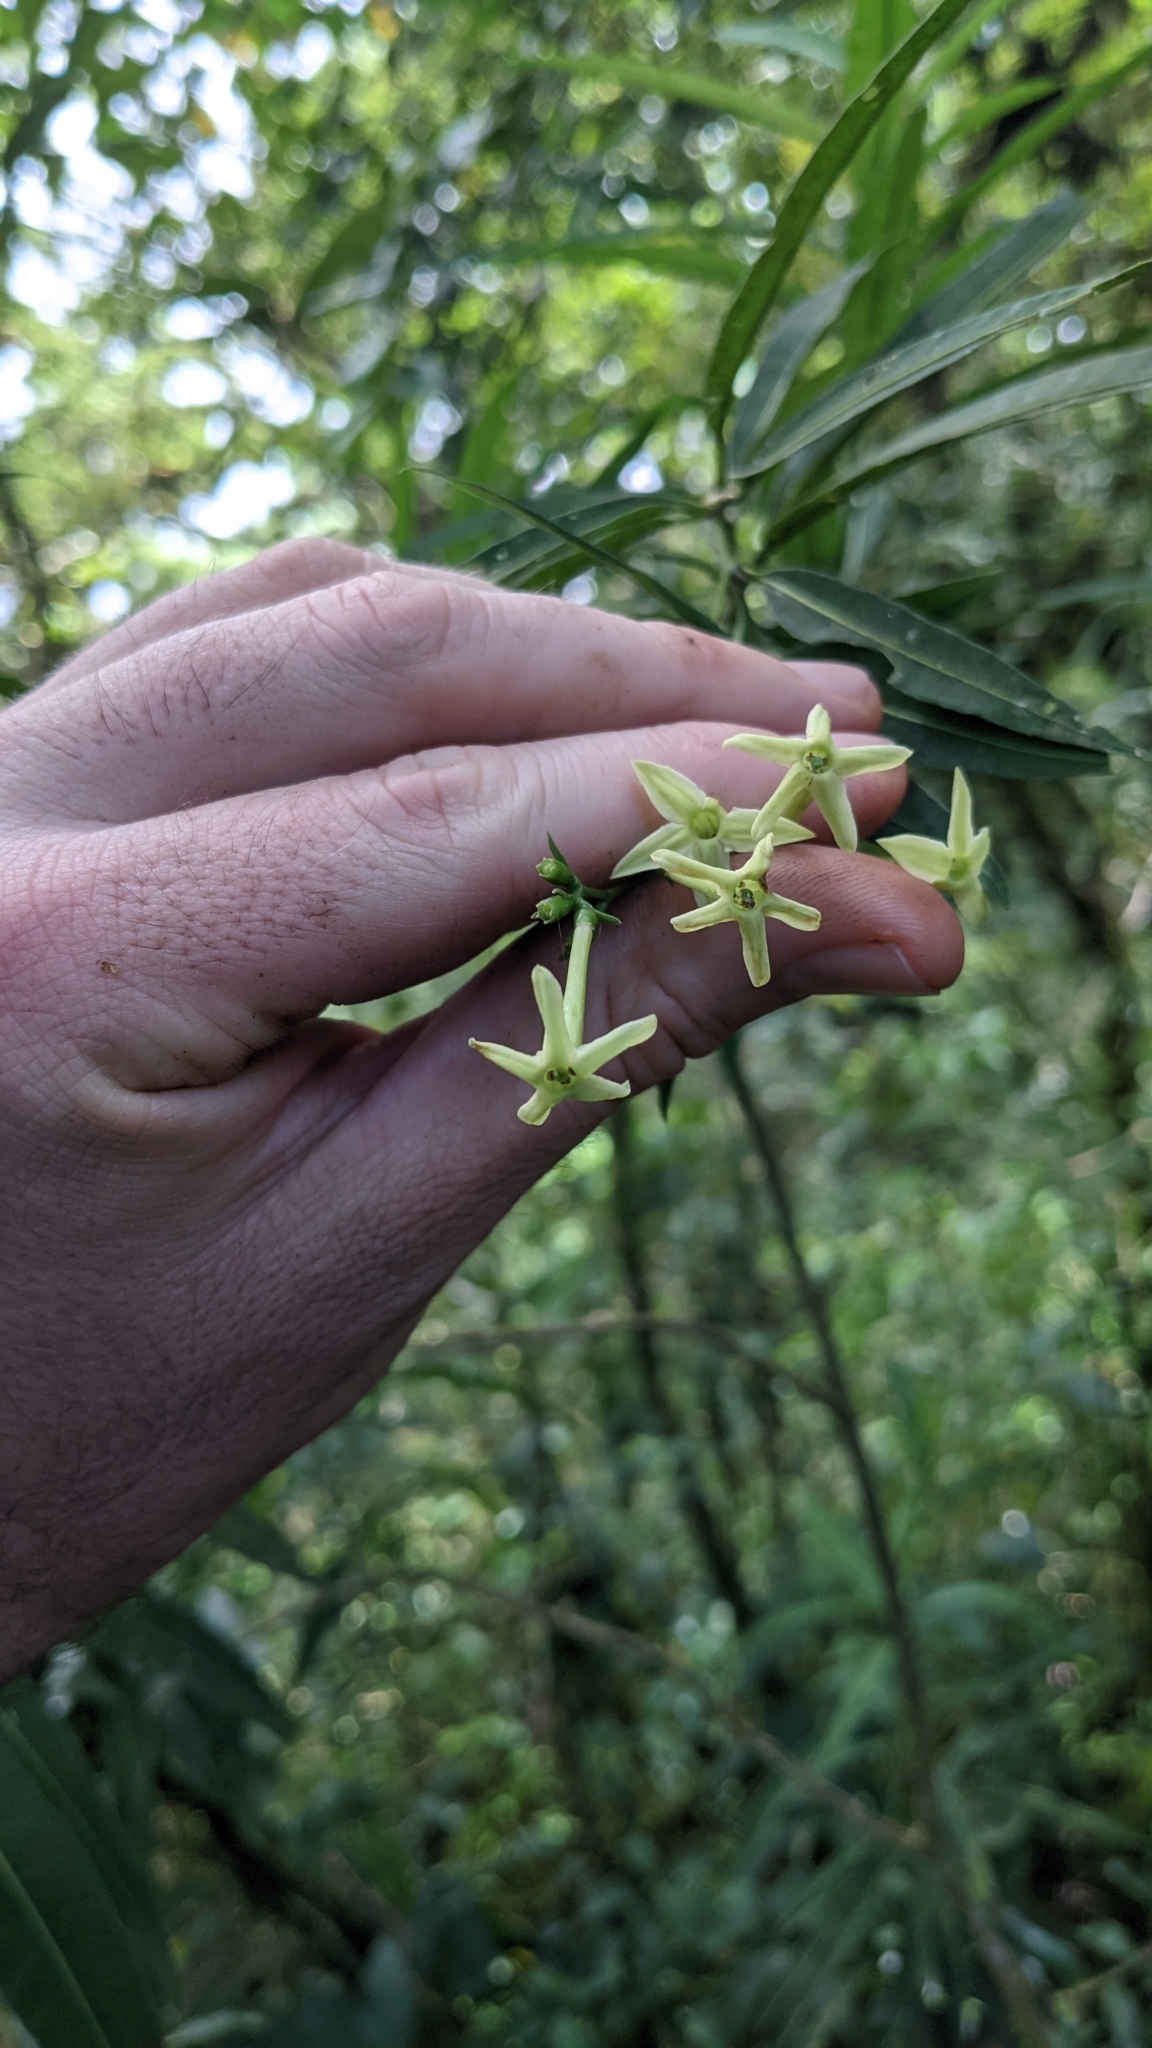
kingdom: Plantae
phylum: Tracheophyta
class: Magnoliopsida
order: Solanales
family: Solanaceae
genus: Cestrum
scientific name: Cestrum cristinae
